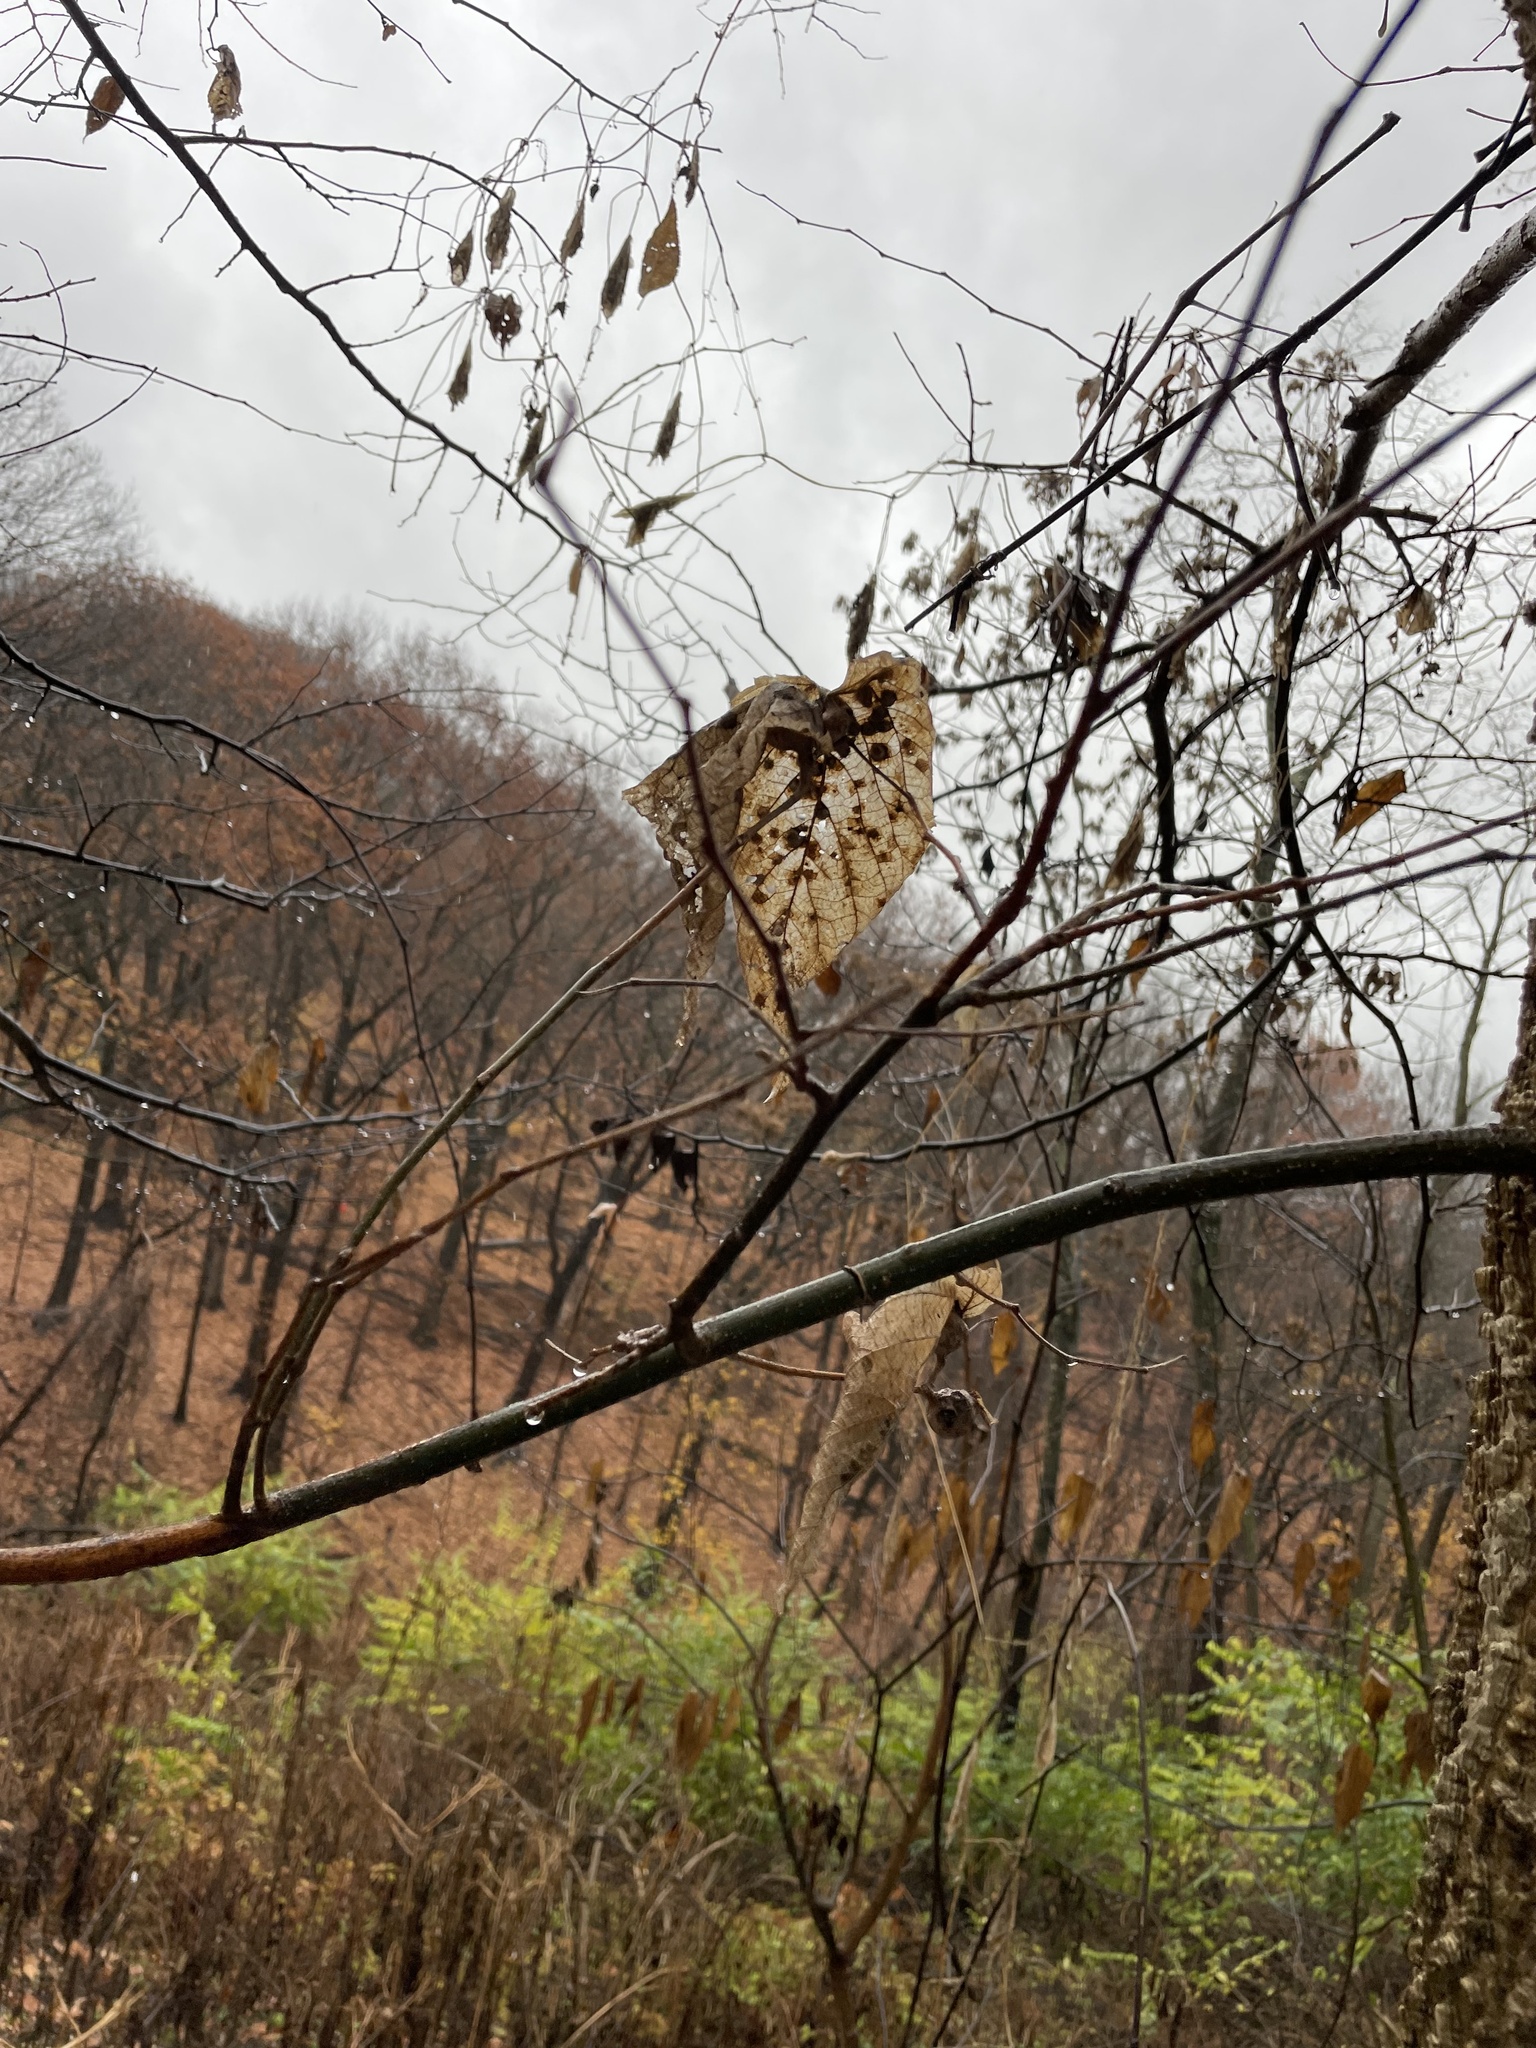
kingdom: Plantae
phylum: Tracheophyta
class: Magnoliopsida
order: Rosales
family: Cannabaceae
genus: Celtis
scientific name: Celtis occidentalis
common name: Common hackberry
